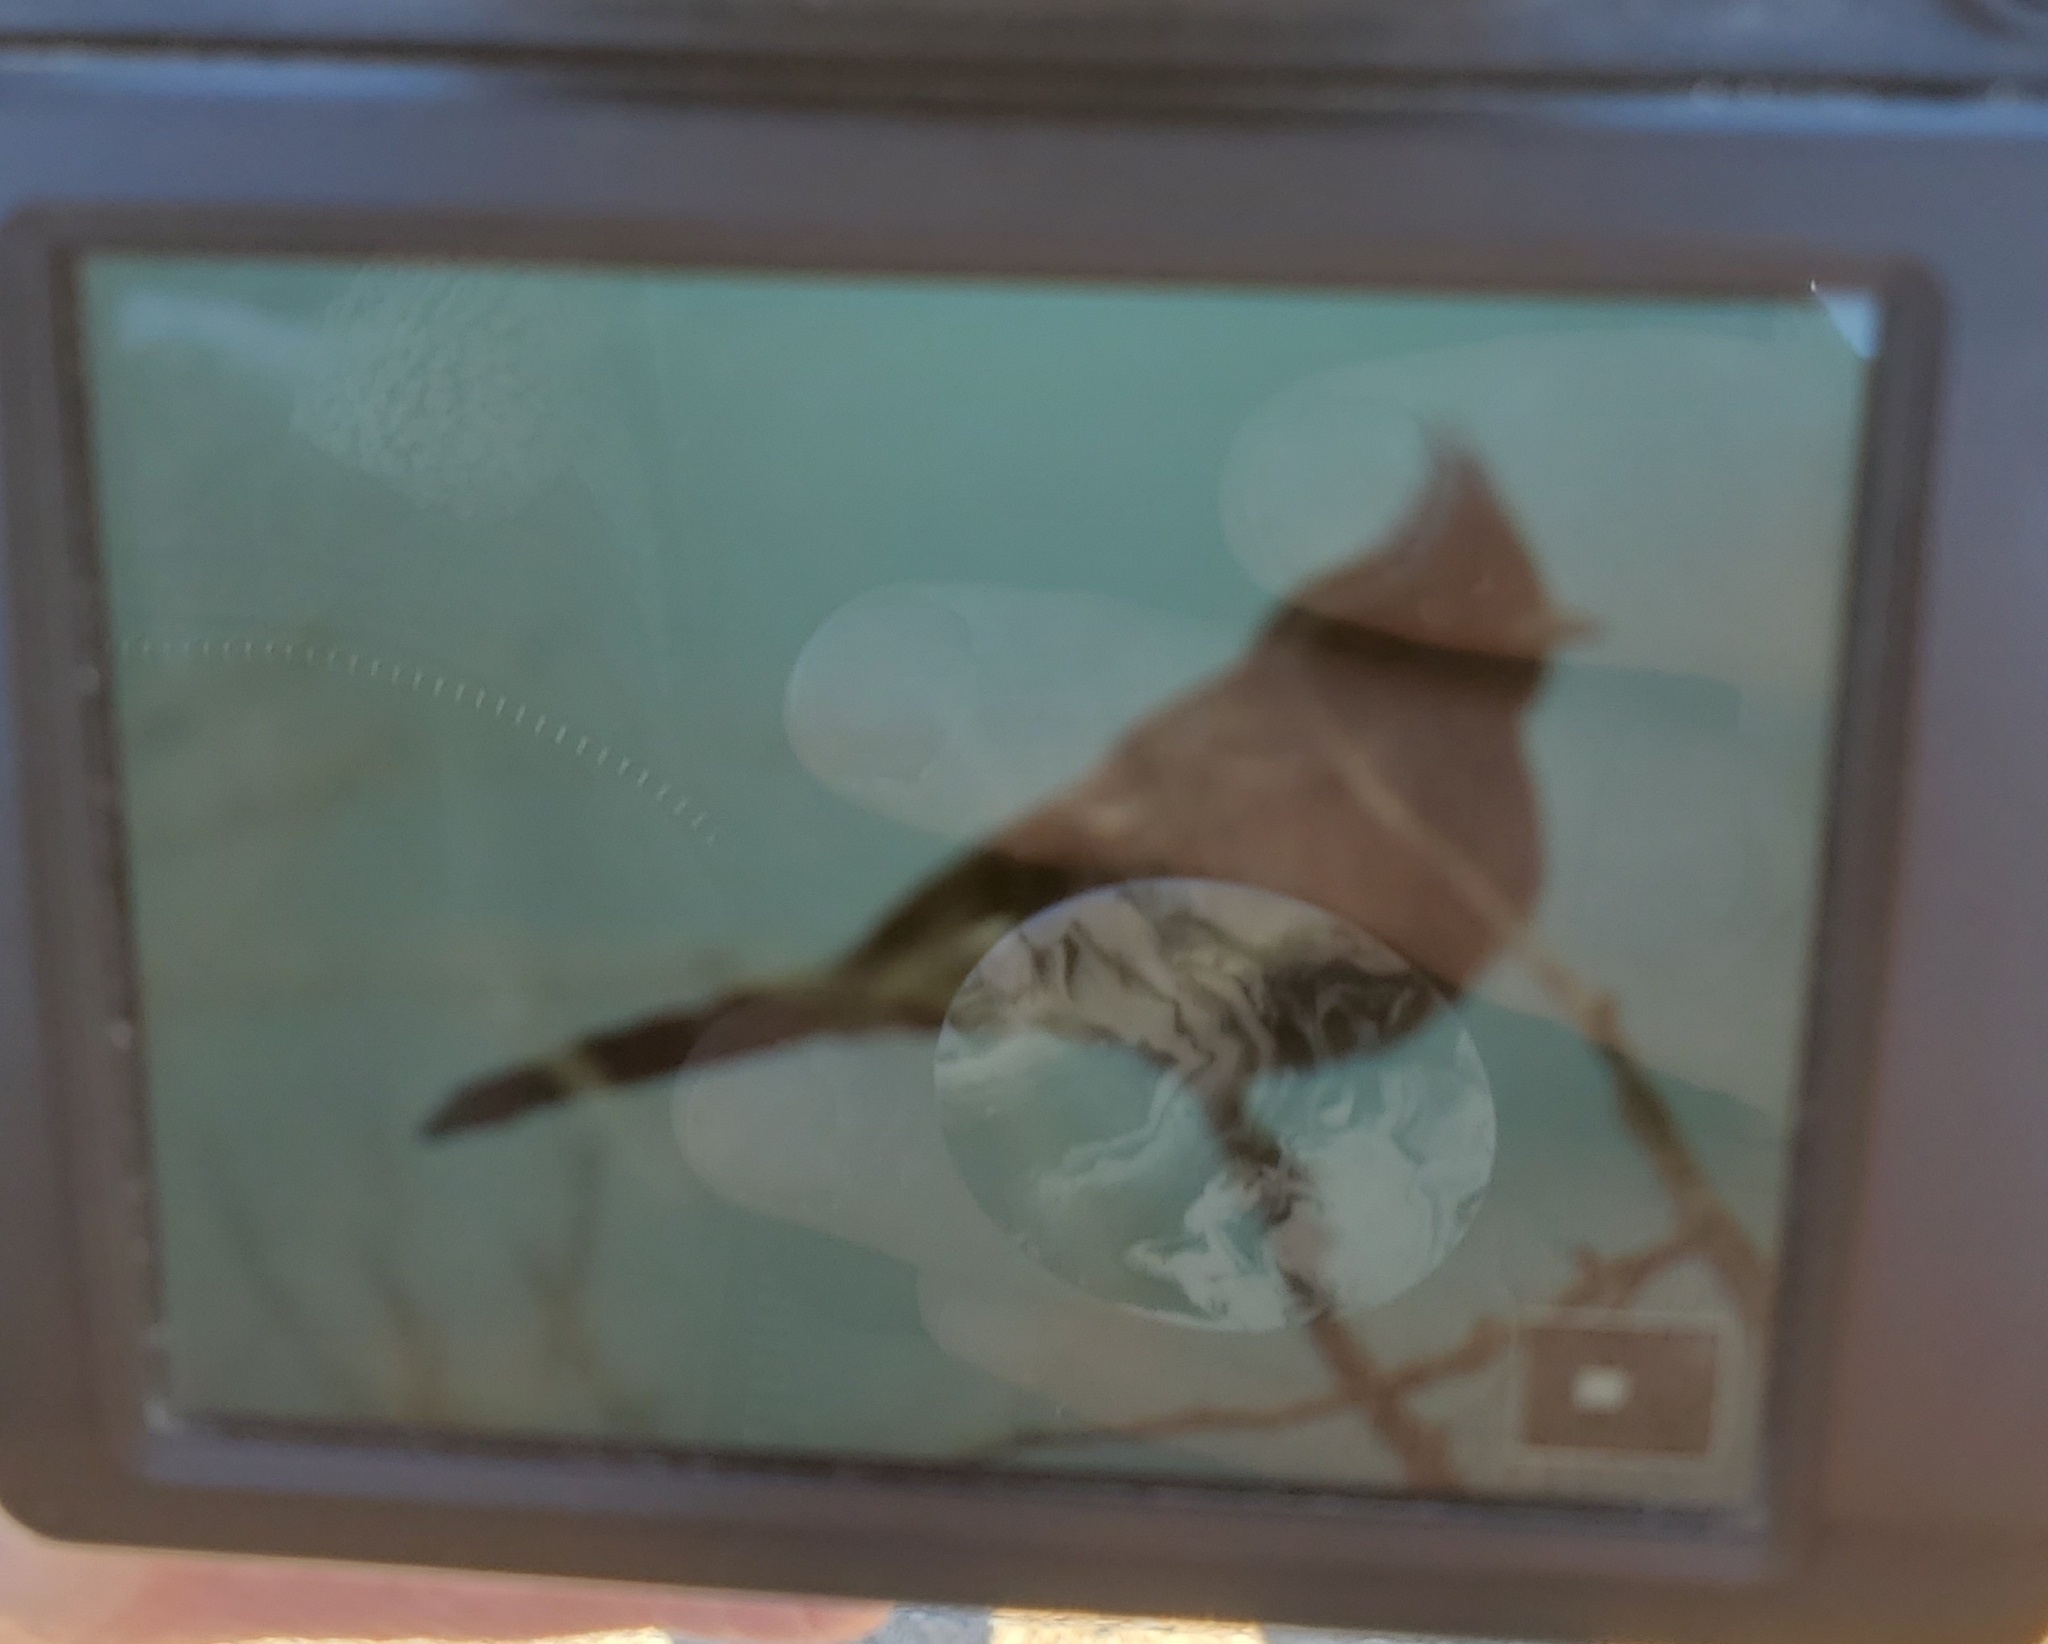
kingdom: Animalia
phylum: Chordata
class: Aves
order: Passeriformes
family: Ptilogonatidae
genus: Phainopepla
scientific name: Phainopepla nitens
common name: Phainopepla
